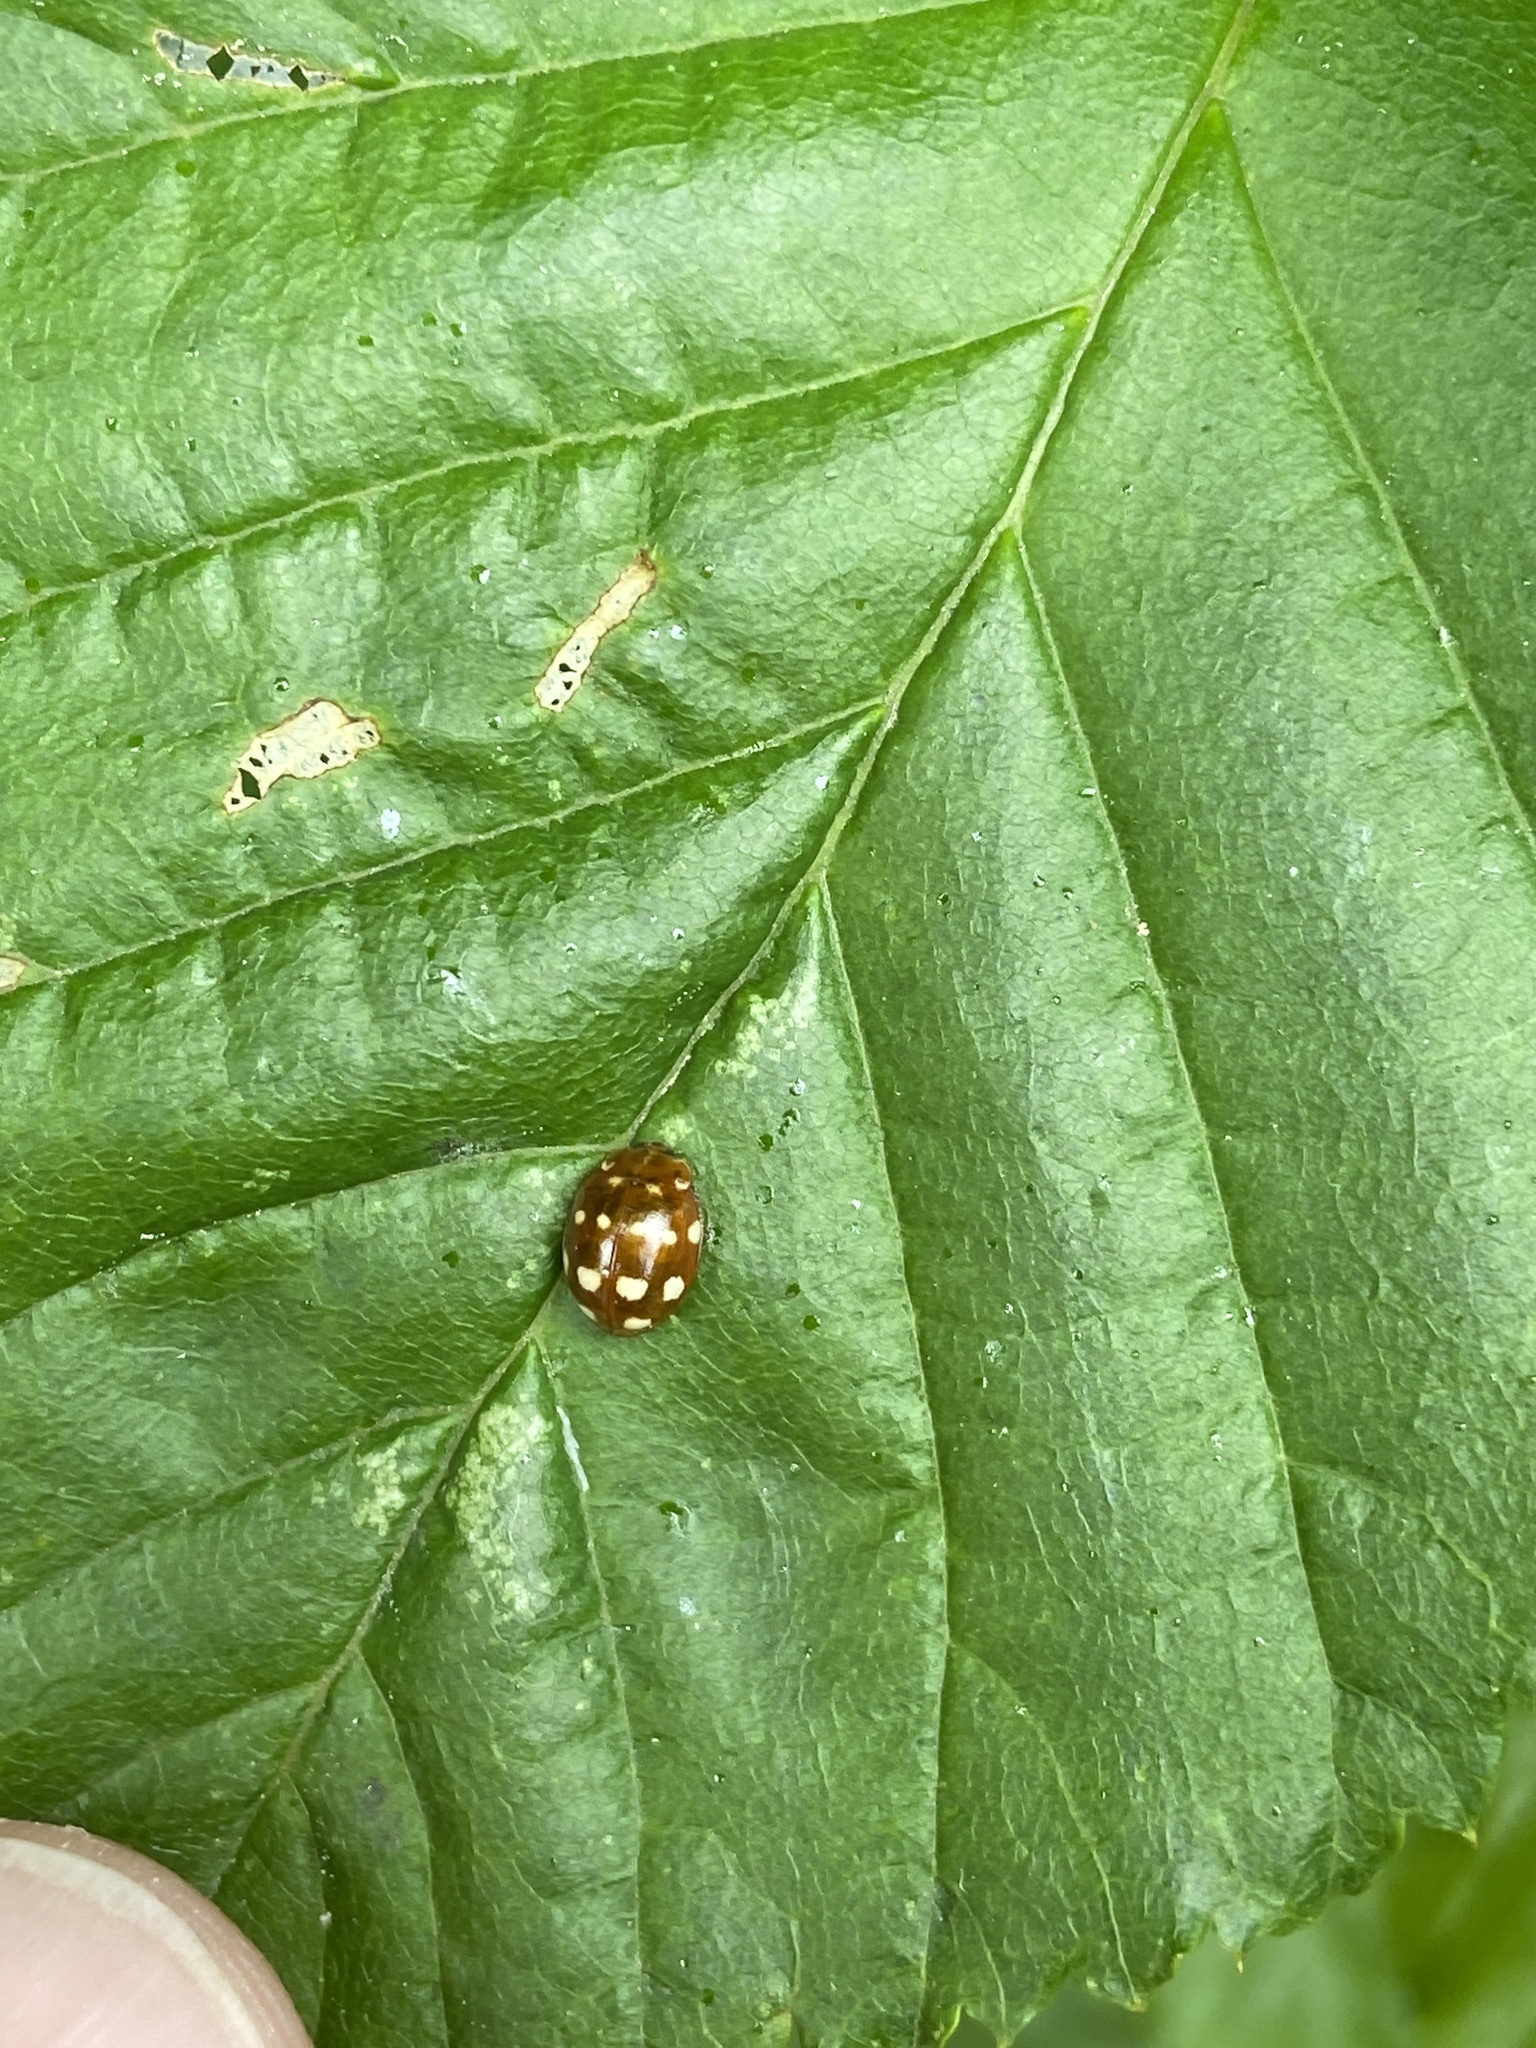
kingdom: Animalia
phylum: Arthropoda
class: Insecta
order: Coleoptera
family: Coccinellidae
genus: Calvia
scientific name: Calvia quatuordecimguttata
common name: Cream-spot ladybird
